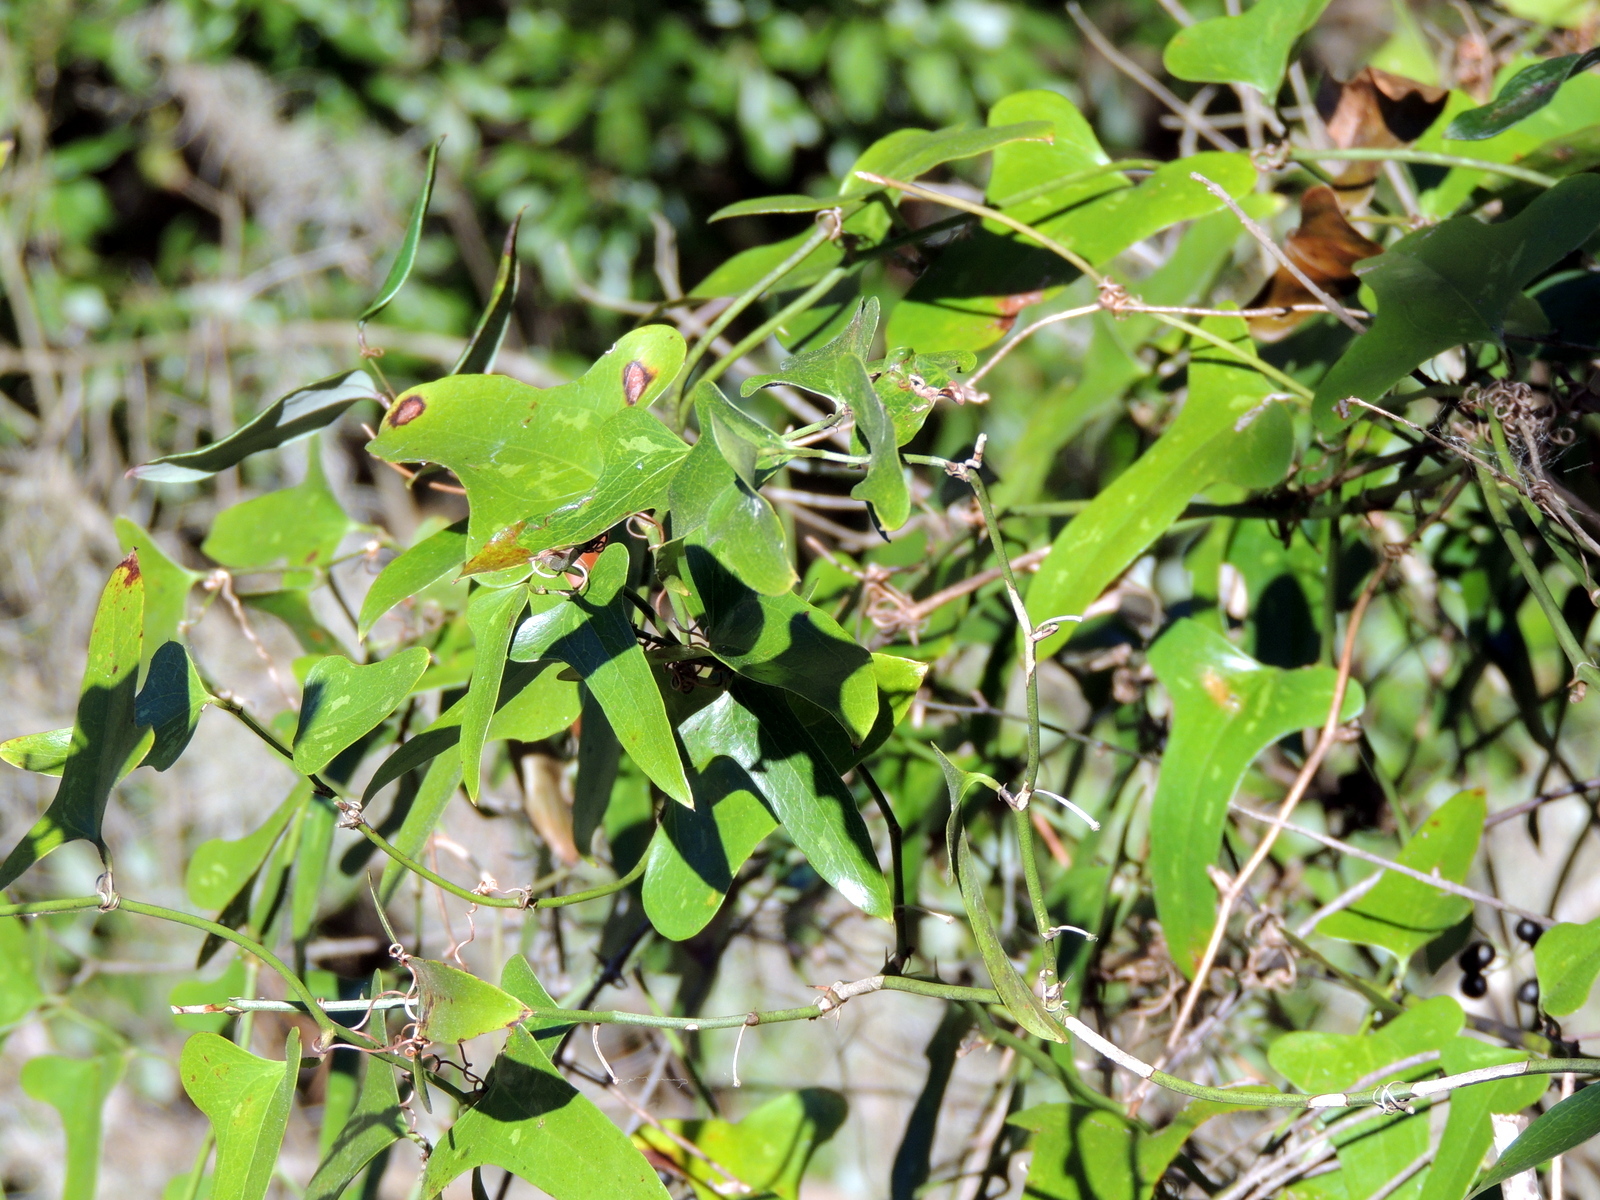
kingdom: Plantae
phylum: Tracheophyta
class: Liliopsida
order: Liliales
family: Smilacaceae
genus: Smilax
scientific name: Smilax bona-nox
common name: Catbrier
